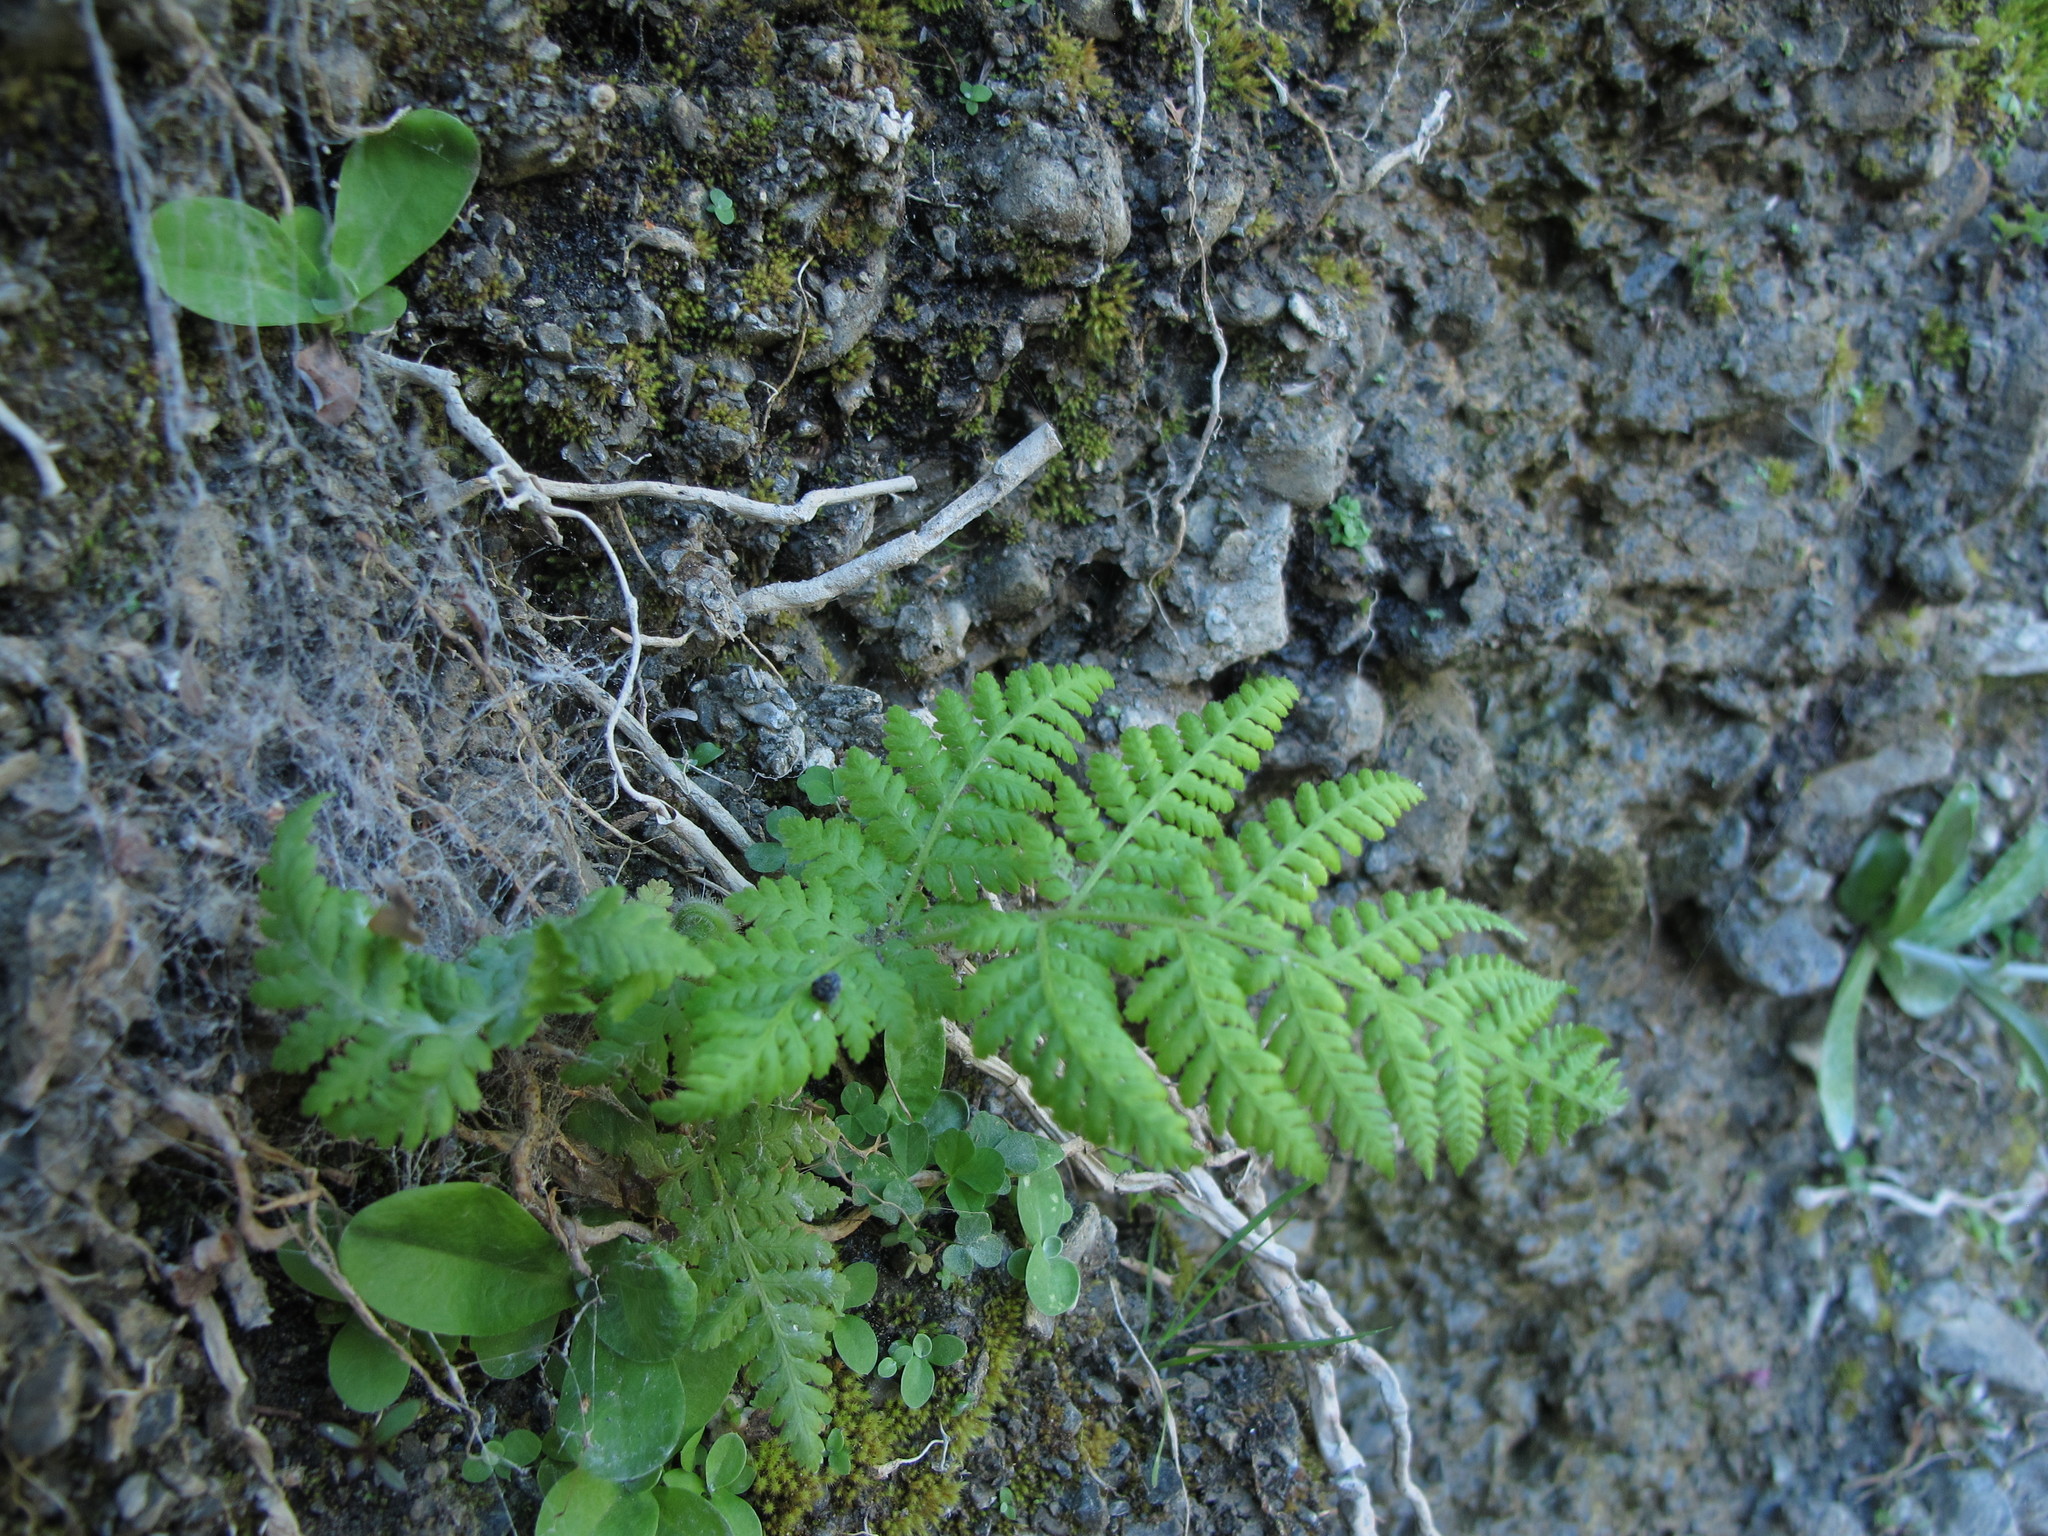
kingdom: Plantae
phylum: Tracheophyta
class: Polypodiopsida
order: Polypodiales
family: Dennstaedtiaceae
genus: Hypolepis
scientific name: Hypolepis ambigua
